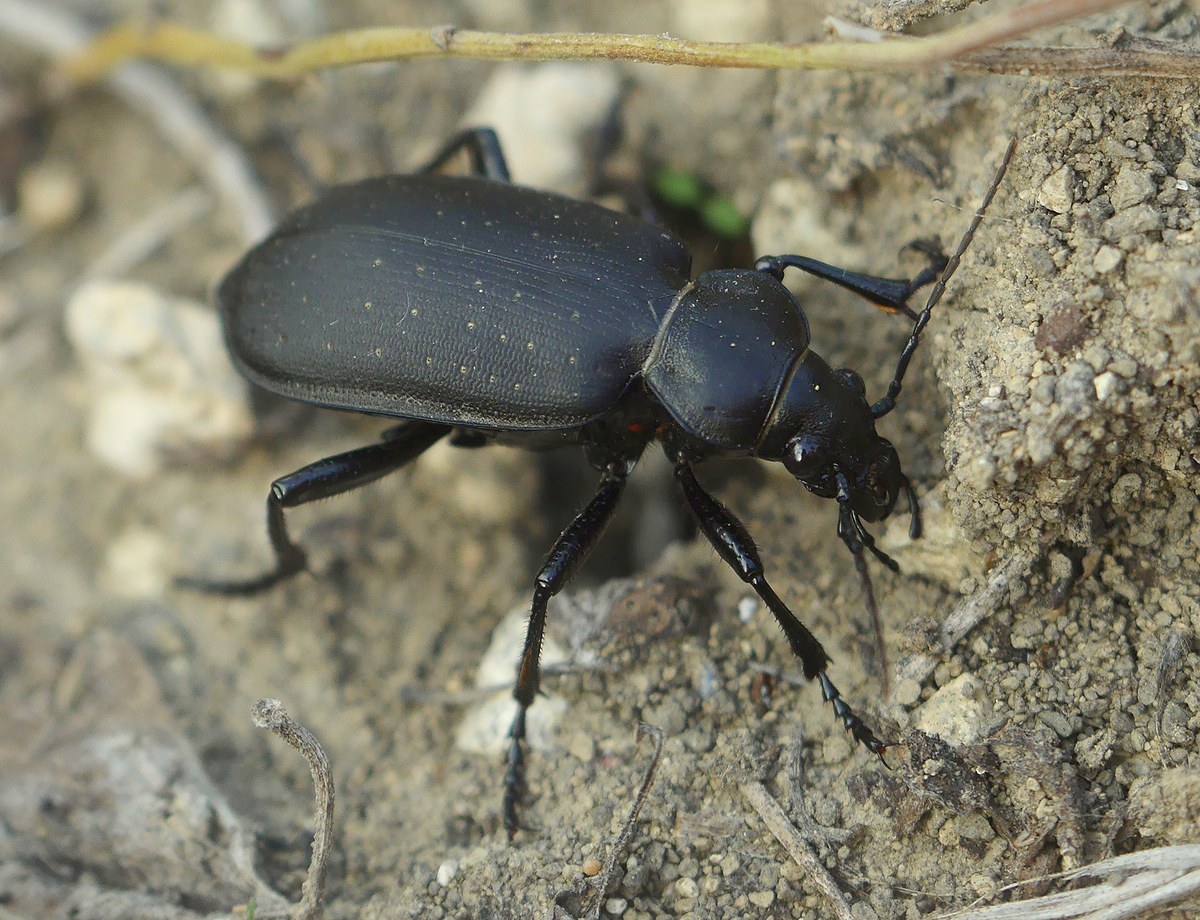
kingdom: Animalia
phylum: Arthropoda
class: Insecta
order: Coleoptera
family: Carabidae
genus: Calosoma
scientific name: Calosoma maderae
